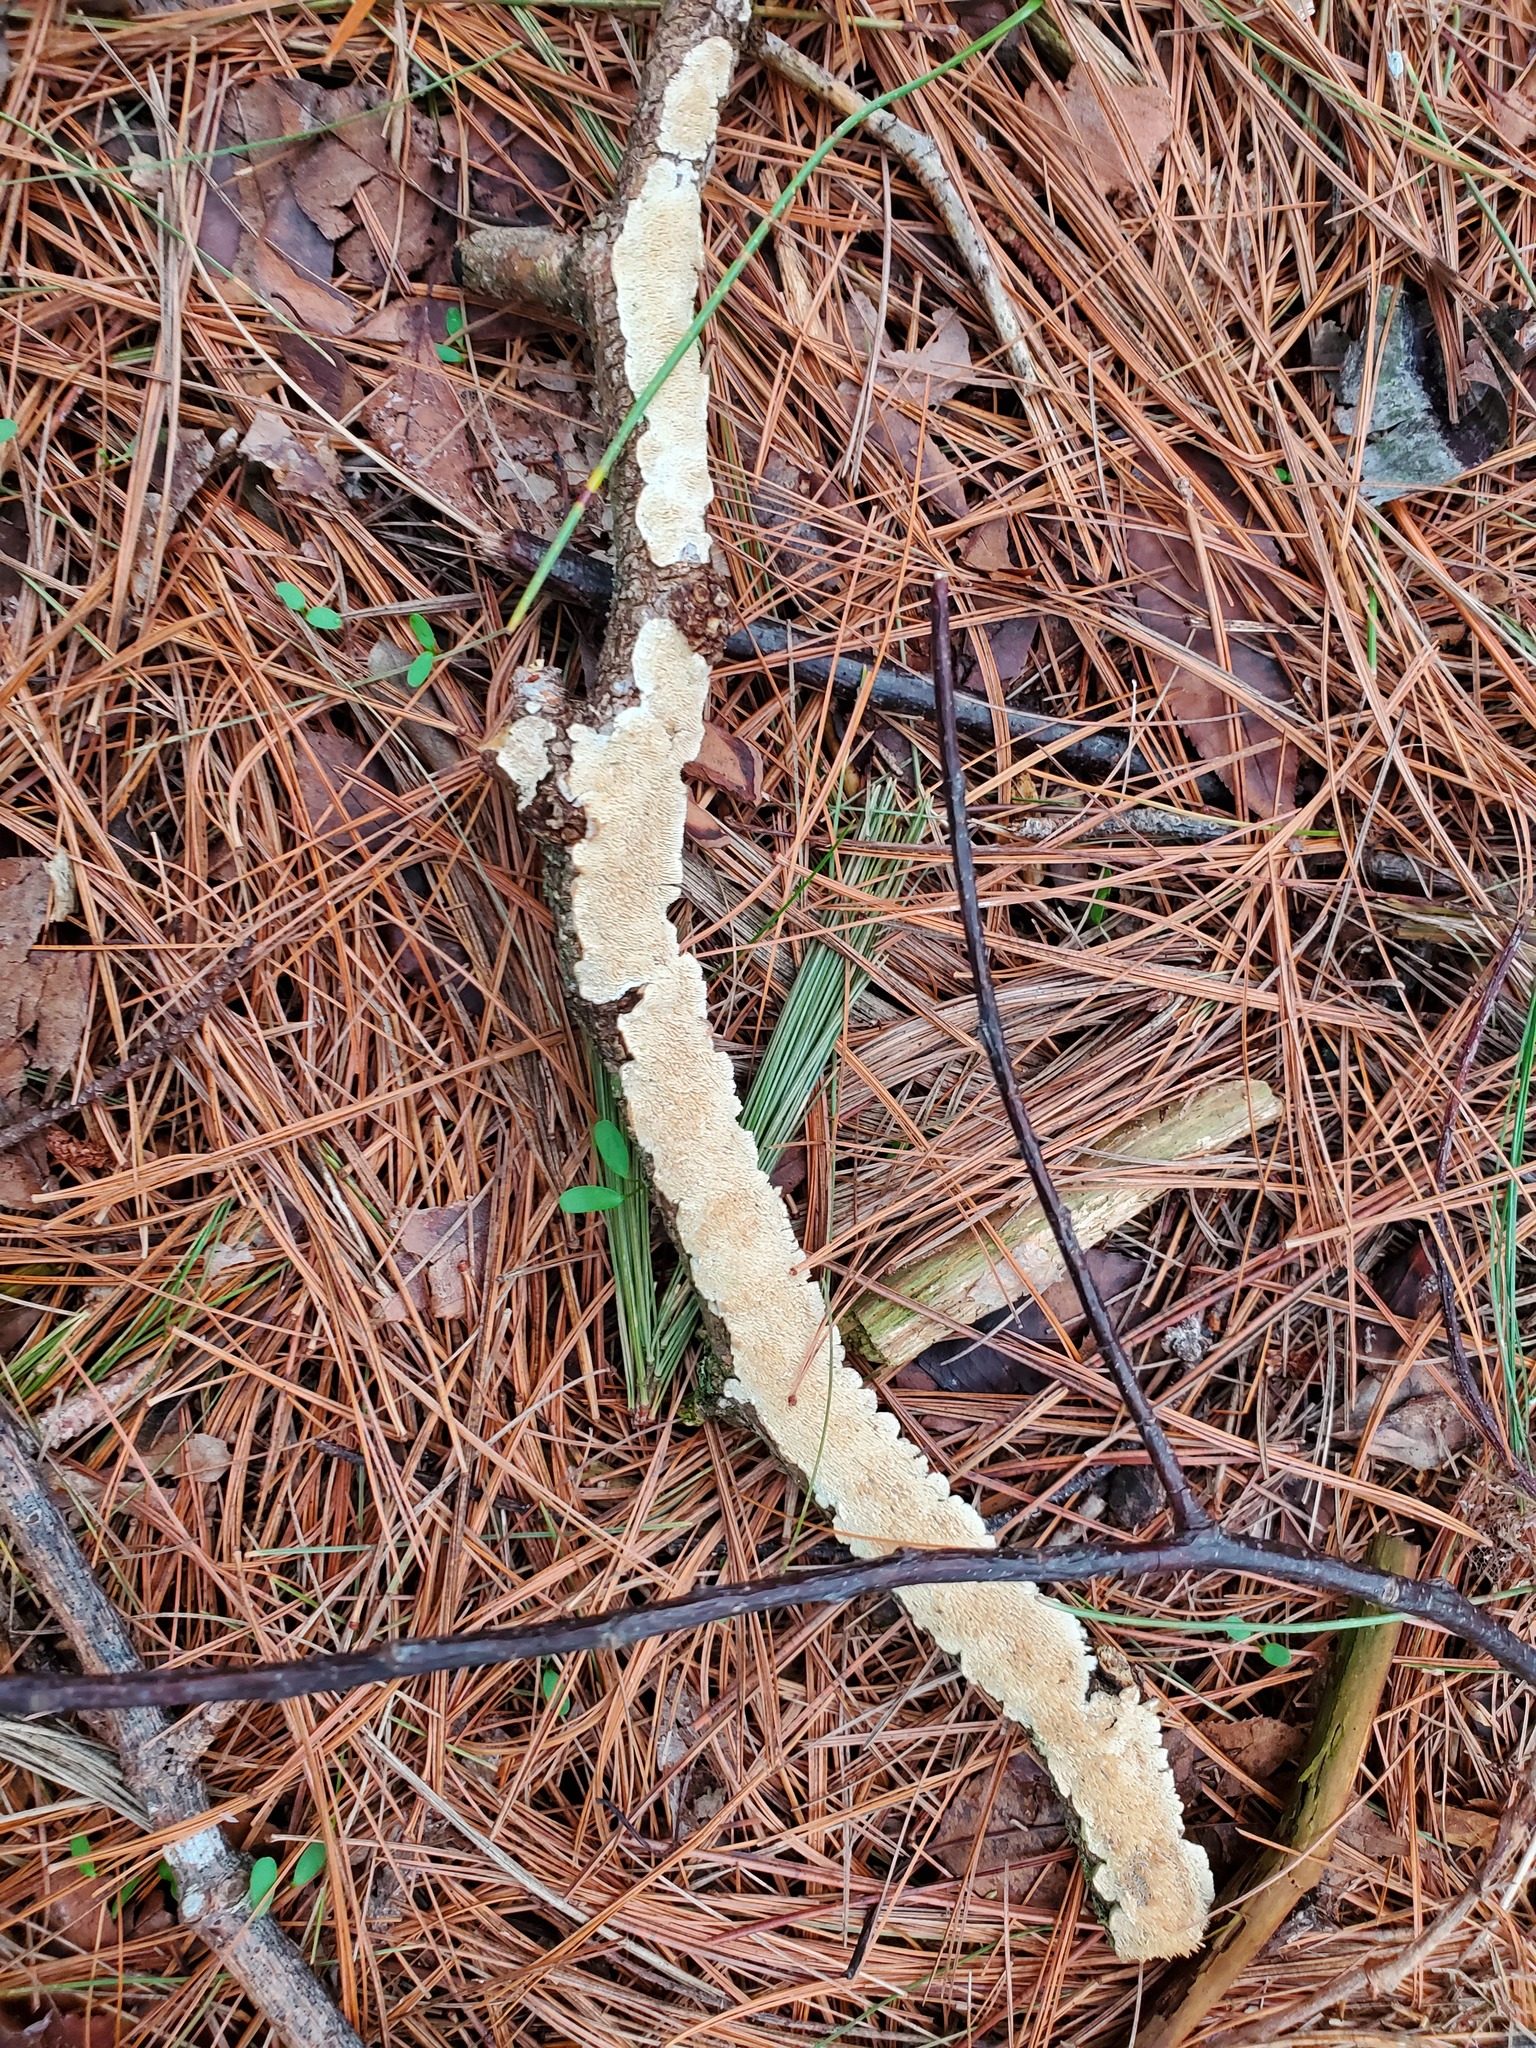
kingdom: Fungi
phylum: Basidiomycota
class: Agaricomycetes
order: Polyporales
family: Irpicaceae
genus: Irpex
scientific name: Irpex lacteus
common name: Milk-white toothed polypore
